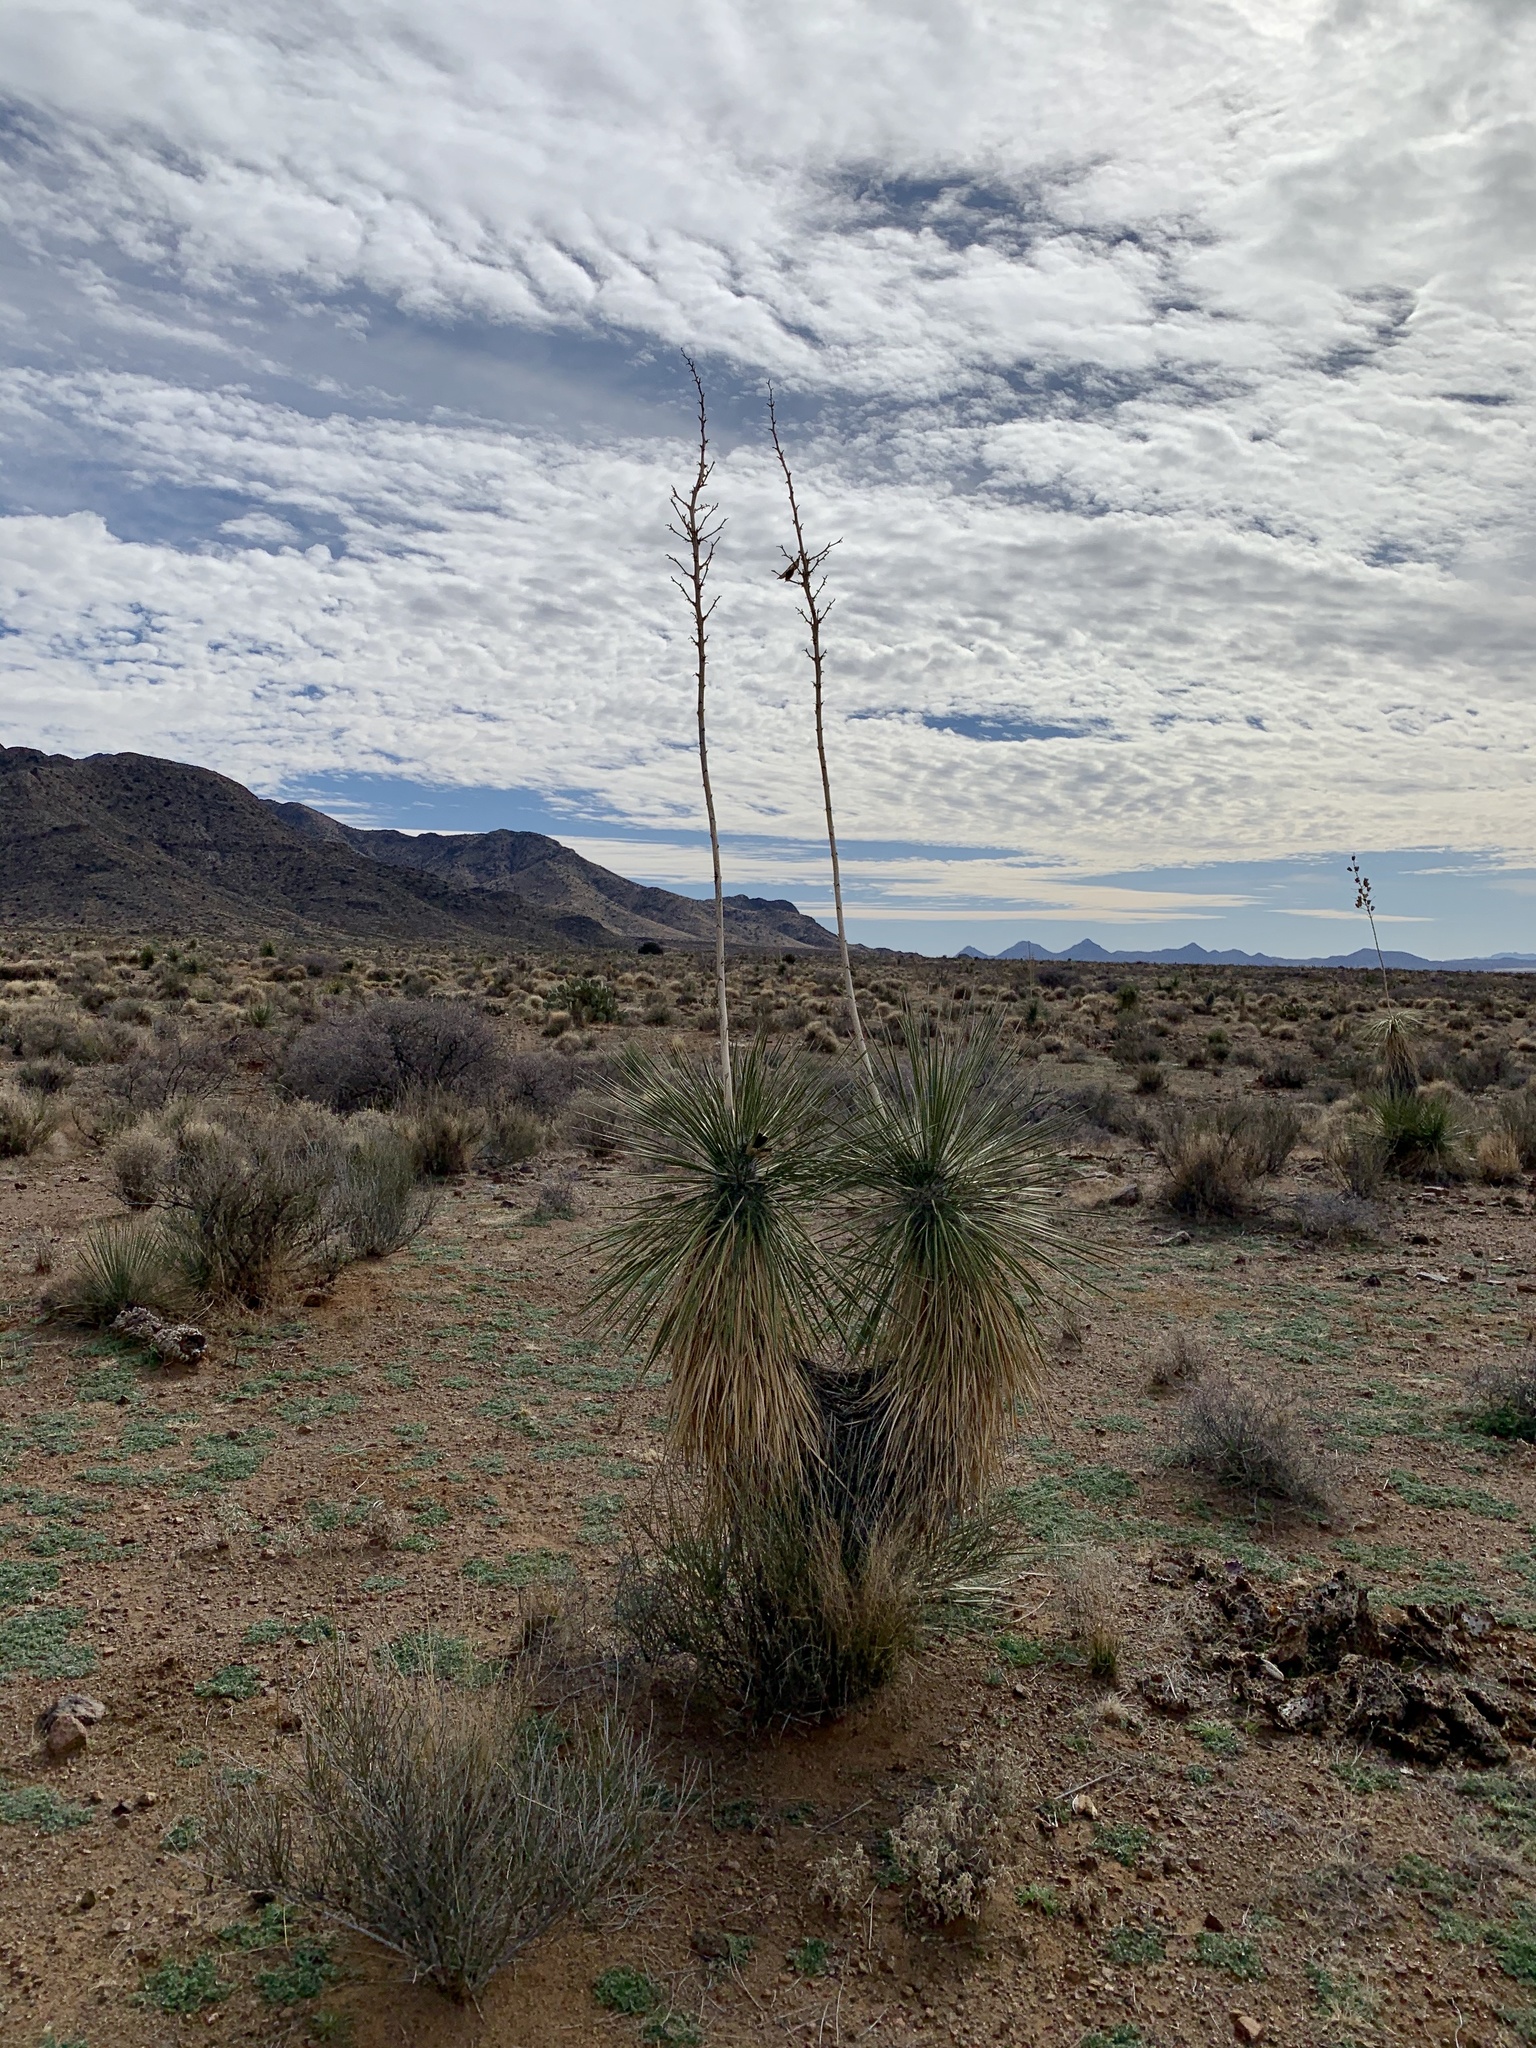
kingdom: Plantae
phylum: Tracheophyta
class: Liliopsida
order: Asparagales
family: Asparagaceae
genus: Yucca
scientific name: Yucca elata
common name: Palmella
